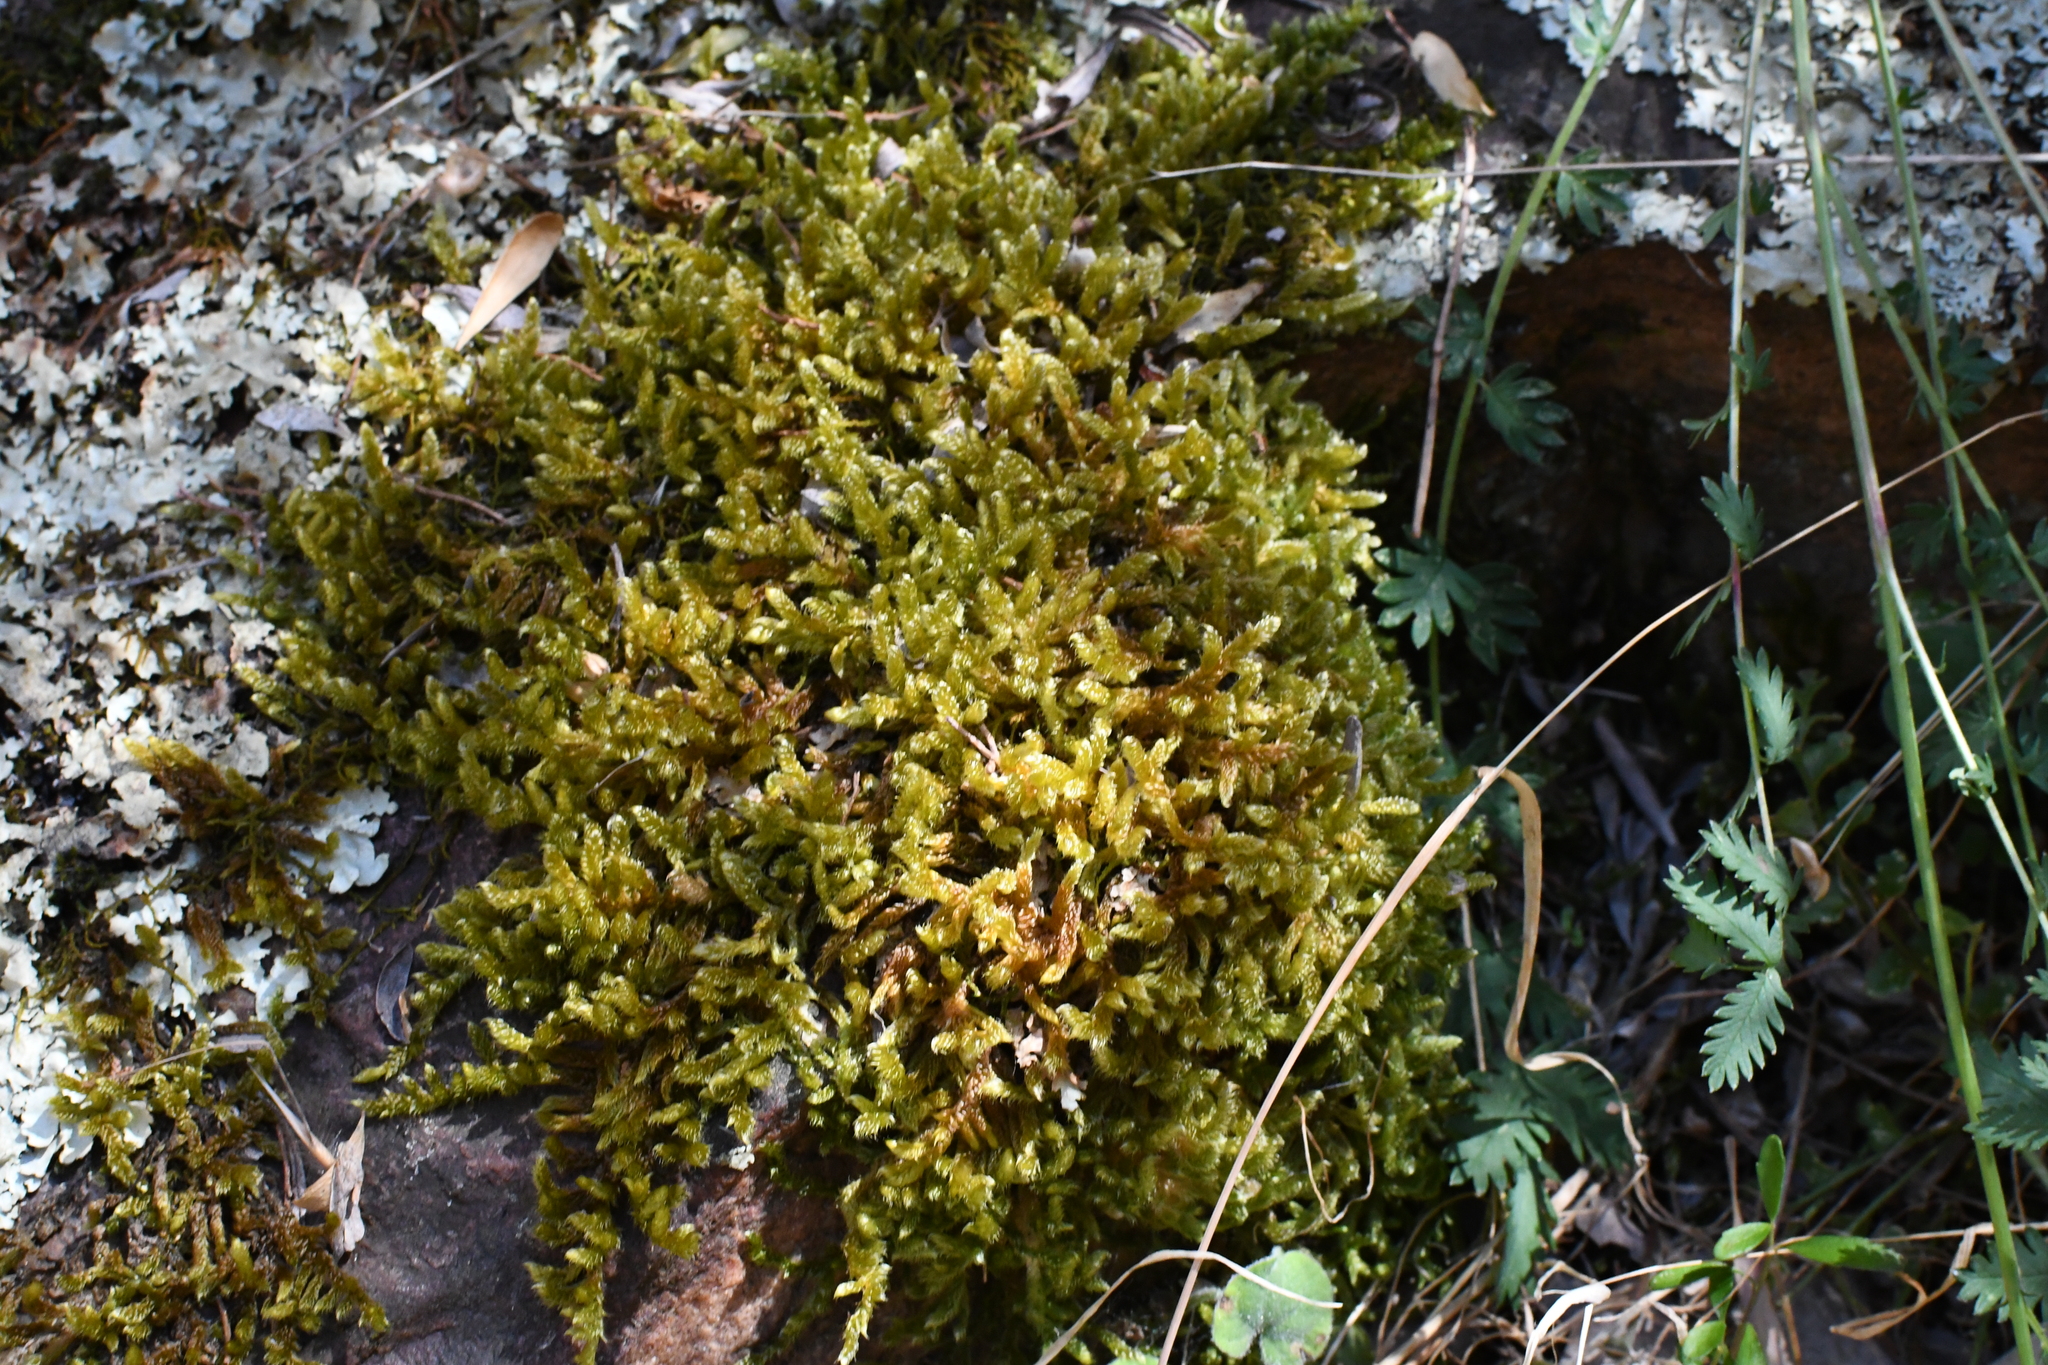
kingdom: Plantae
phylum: Bryophyta
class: Bryopsida
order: Hypnales
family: Hypnaceae
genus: Hypnum
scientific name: Hypnum cupressiforme
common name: Cypress-leaved plait-moss
